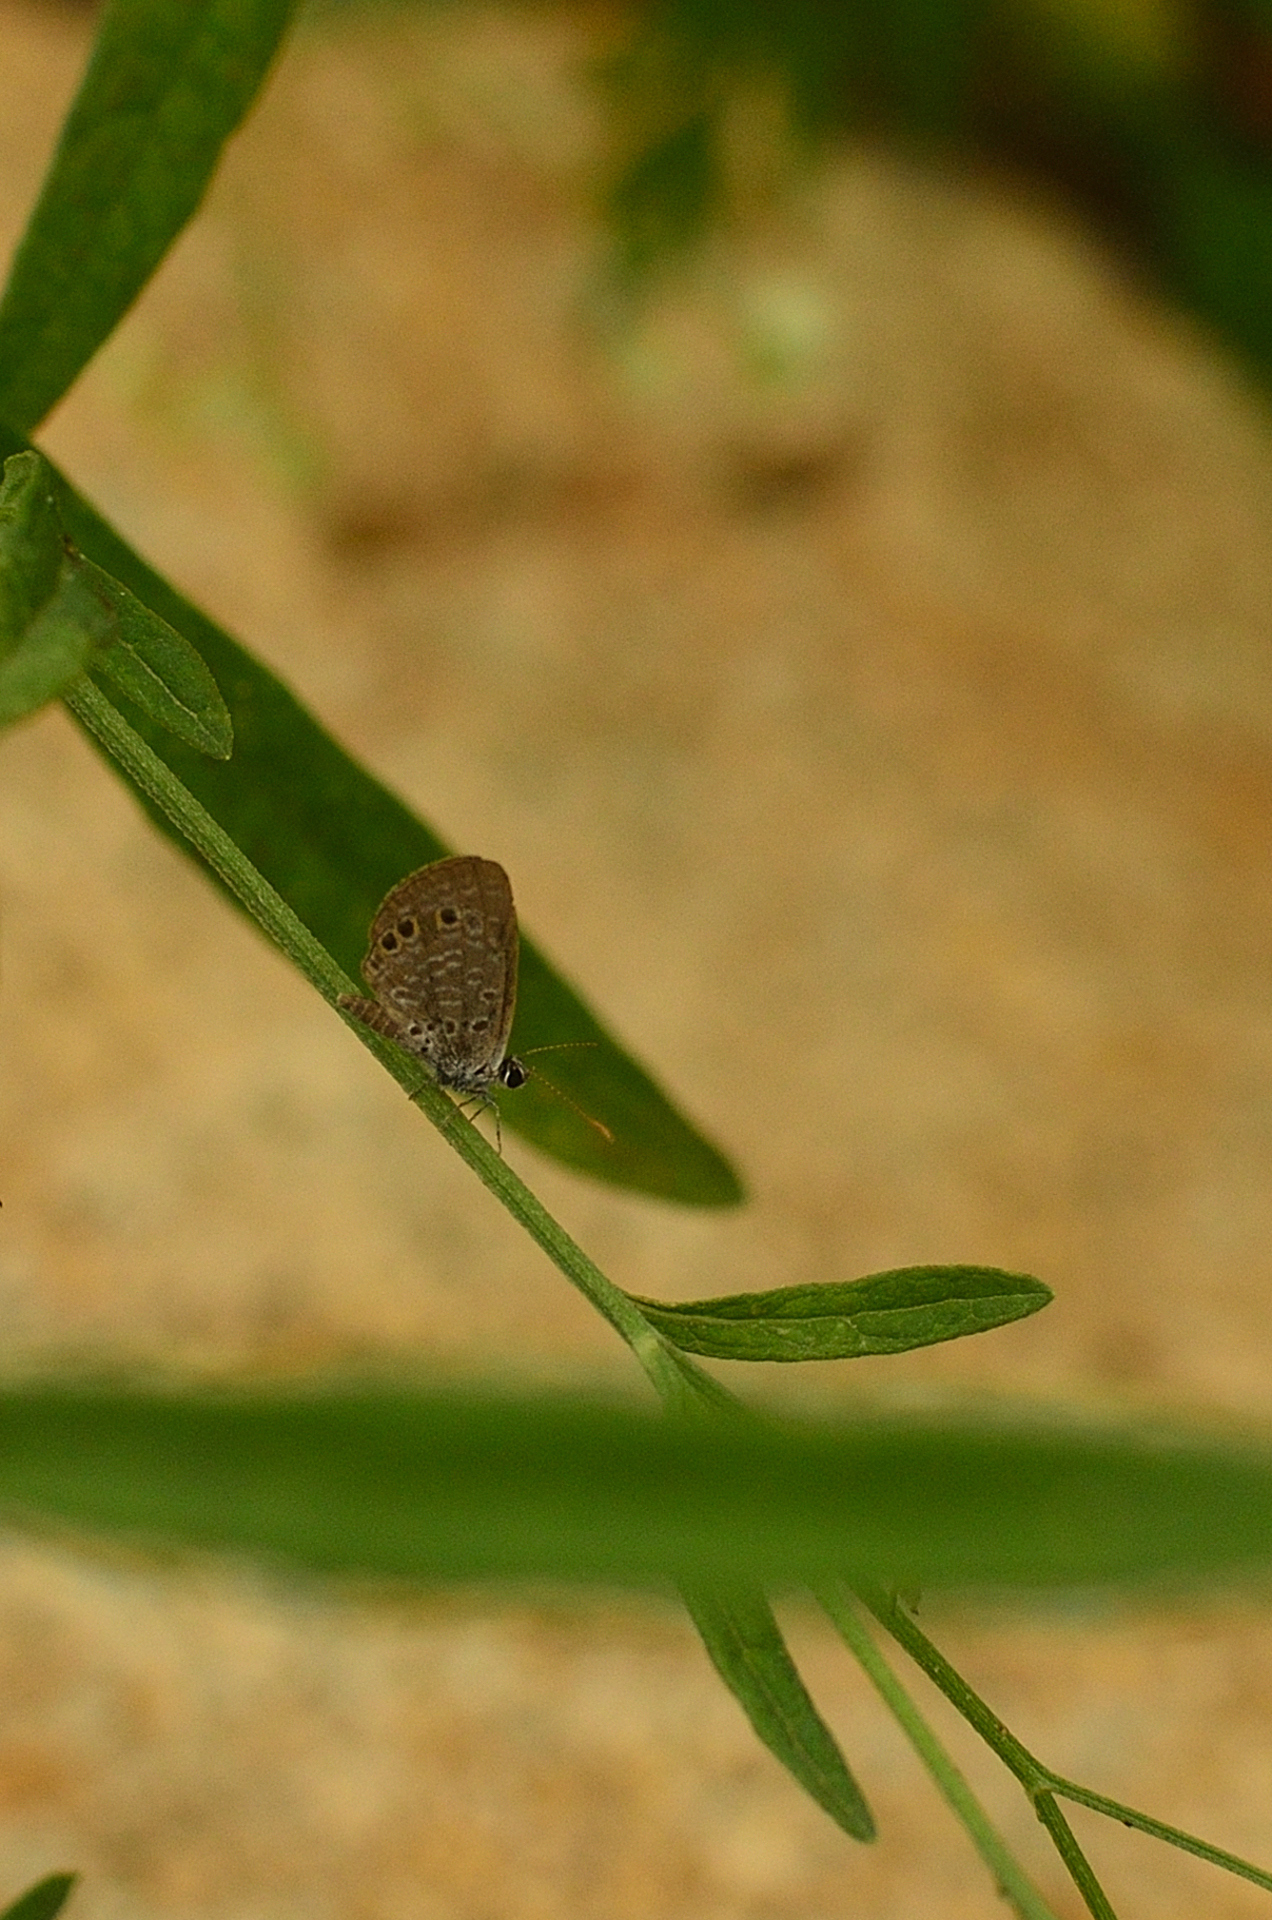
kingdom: Animalia
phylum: Arthropoda
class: Insecta
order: Lepidoptera
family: Lycaenidae
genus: Freyeria
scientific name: Freyeria putli
